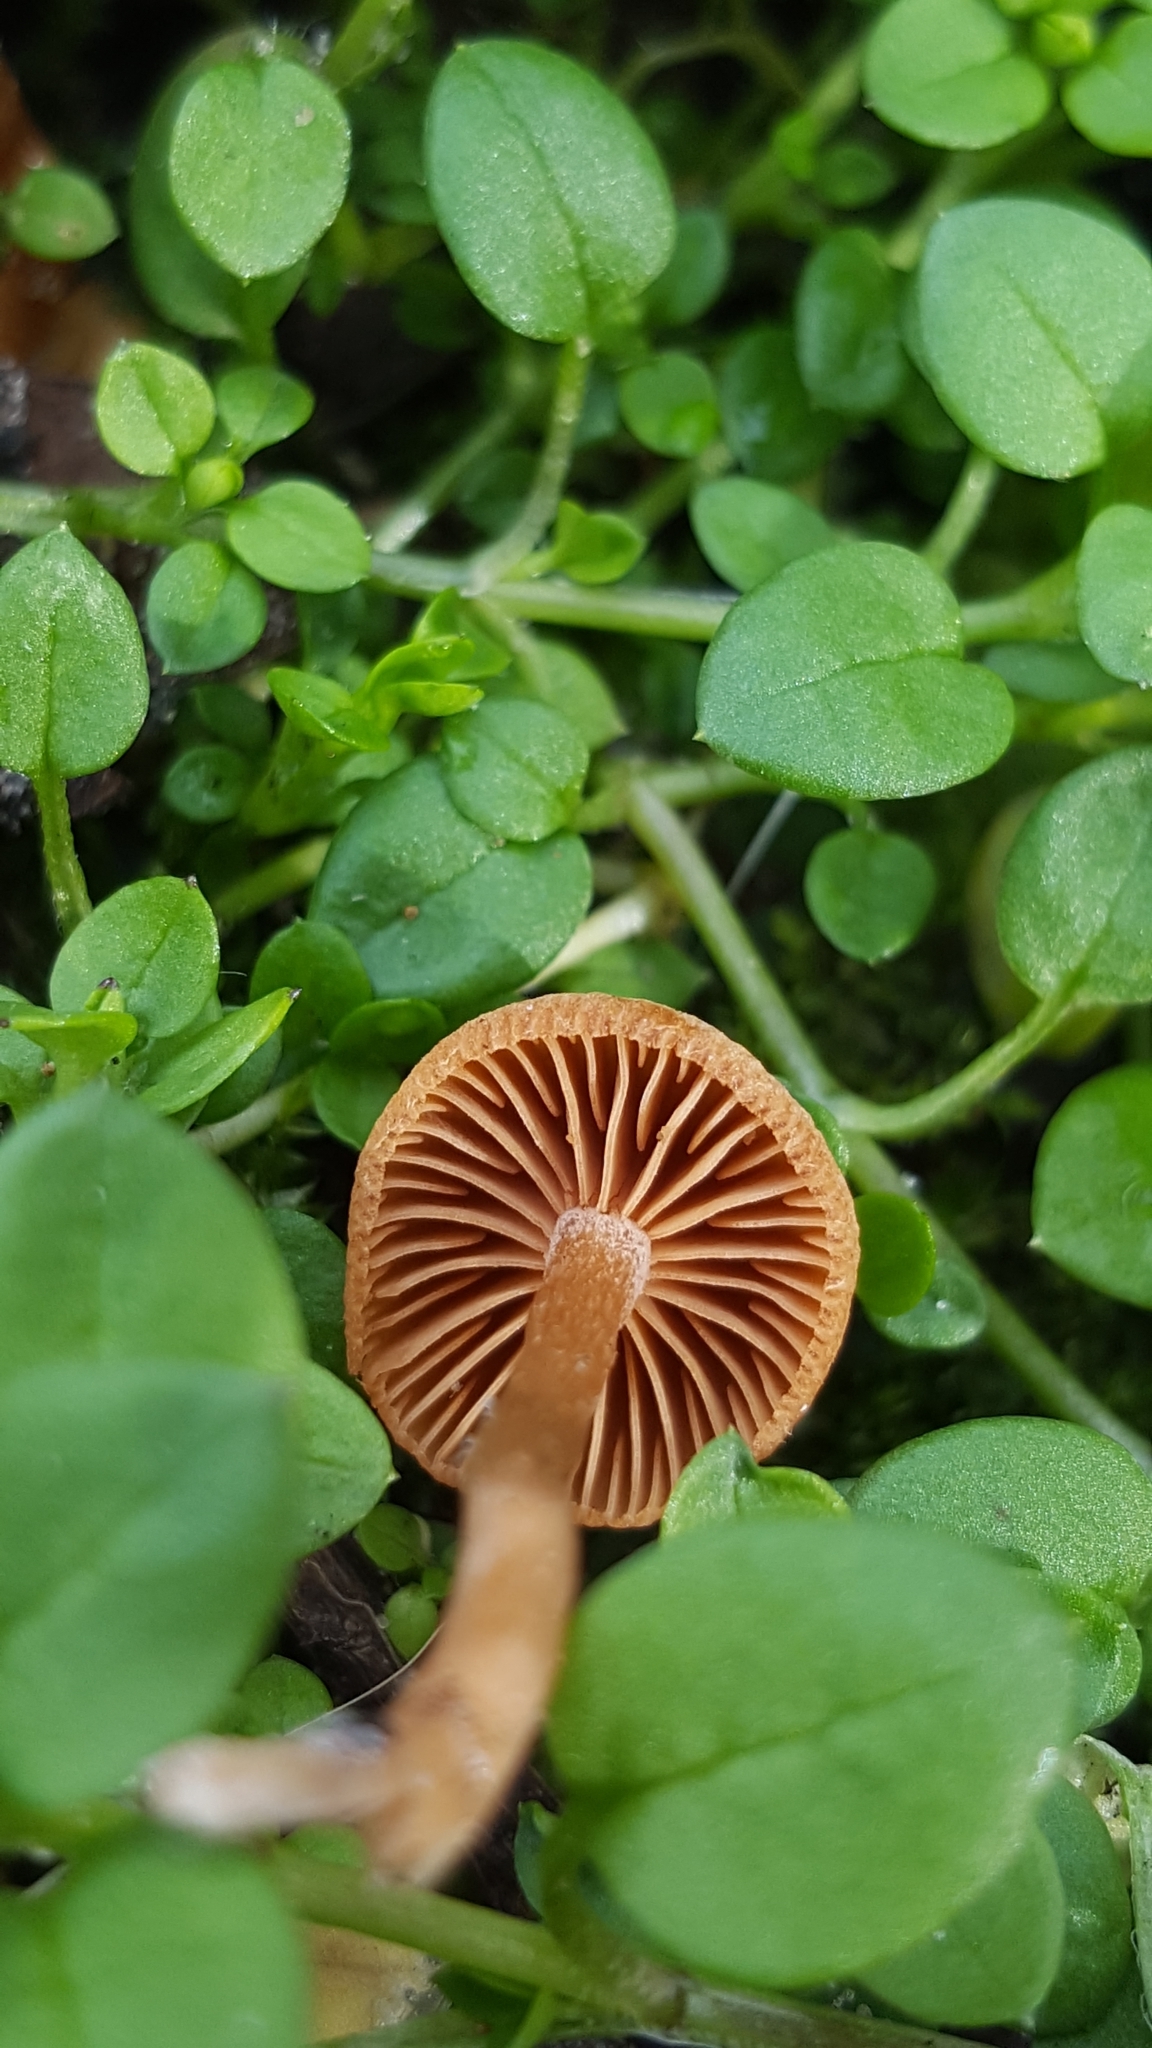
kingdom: Fungi
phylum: Basidiomycota
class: Agaricomycetes
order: Agaricales
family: Tubariaceae
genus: Tubaria
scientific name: Tubaria furfuracea
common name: Scurfy twiglet
